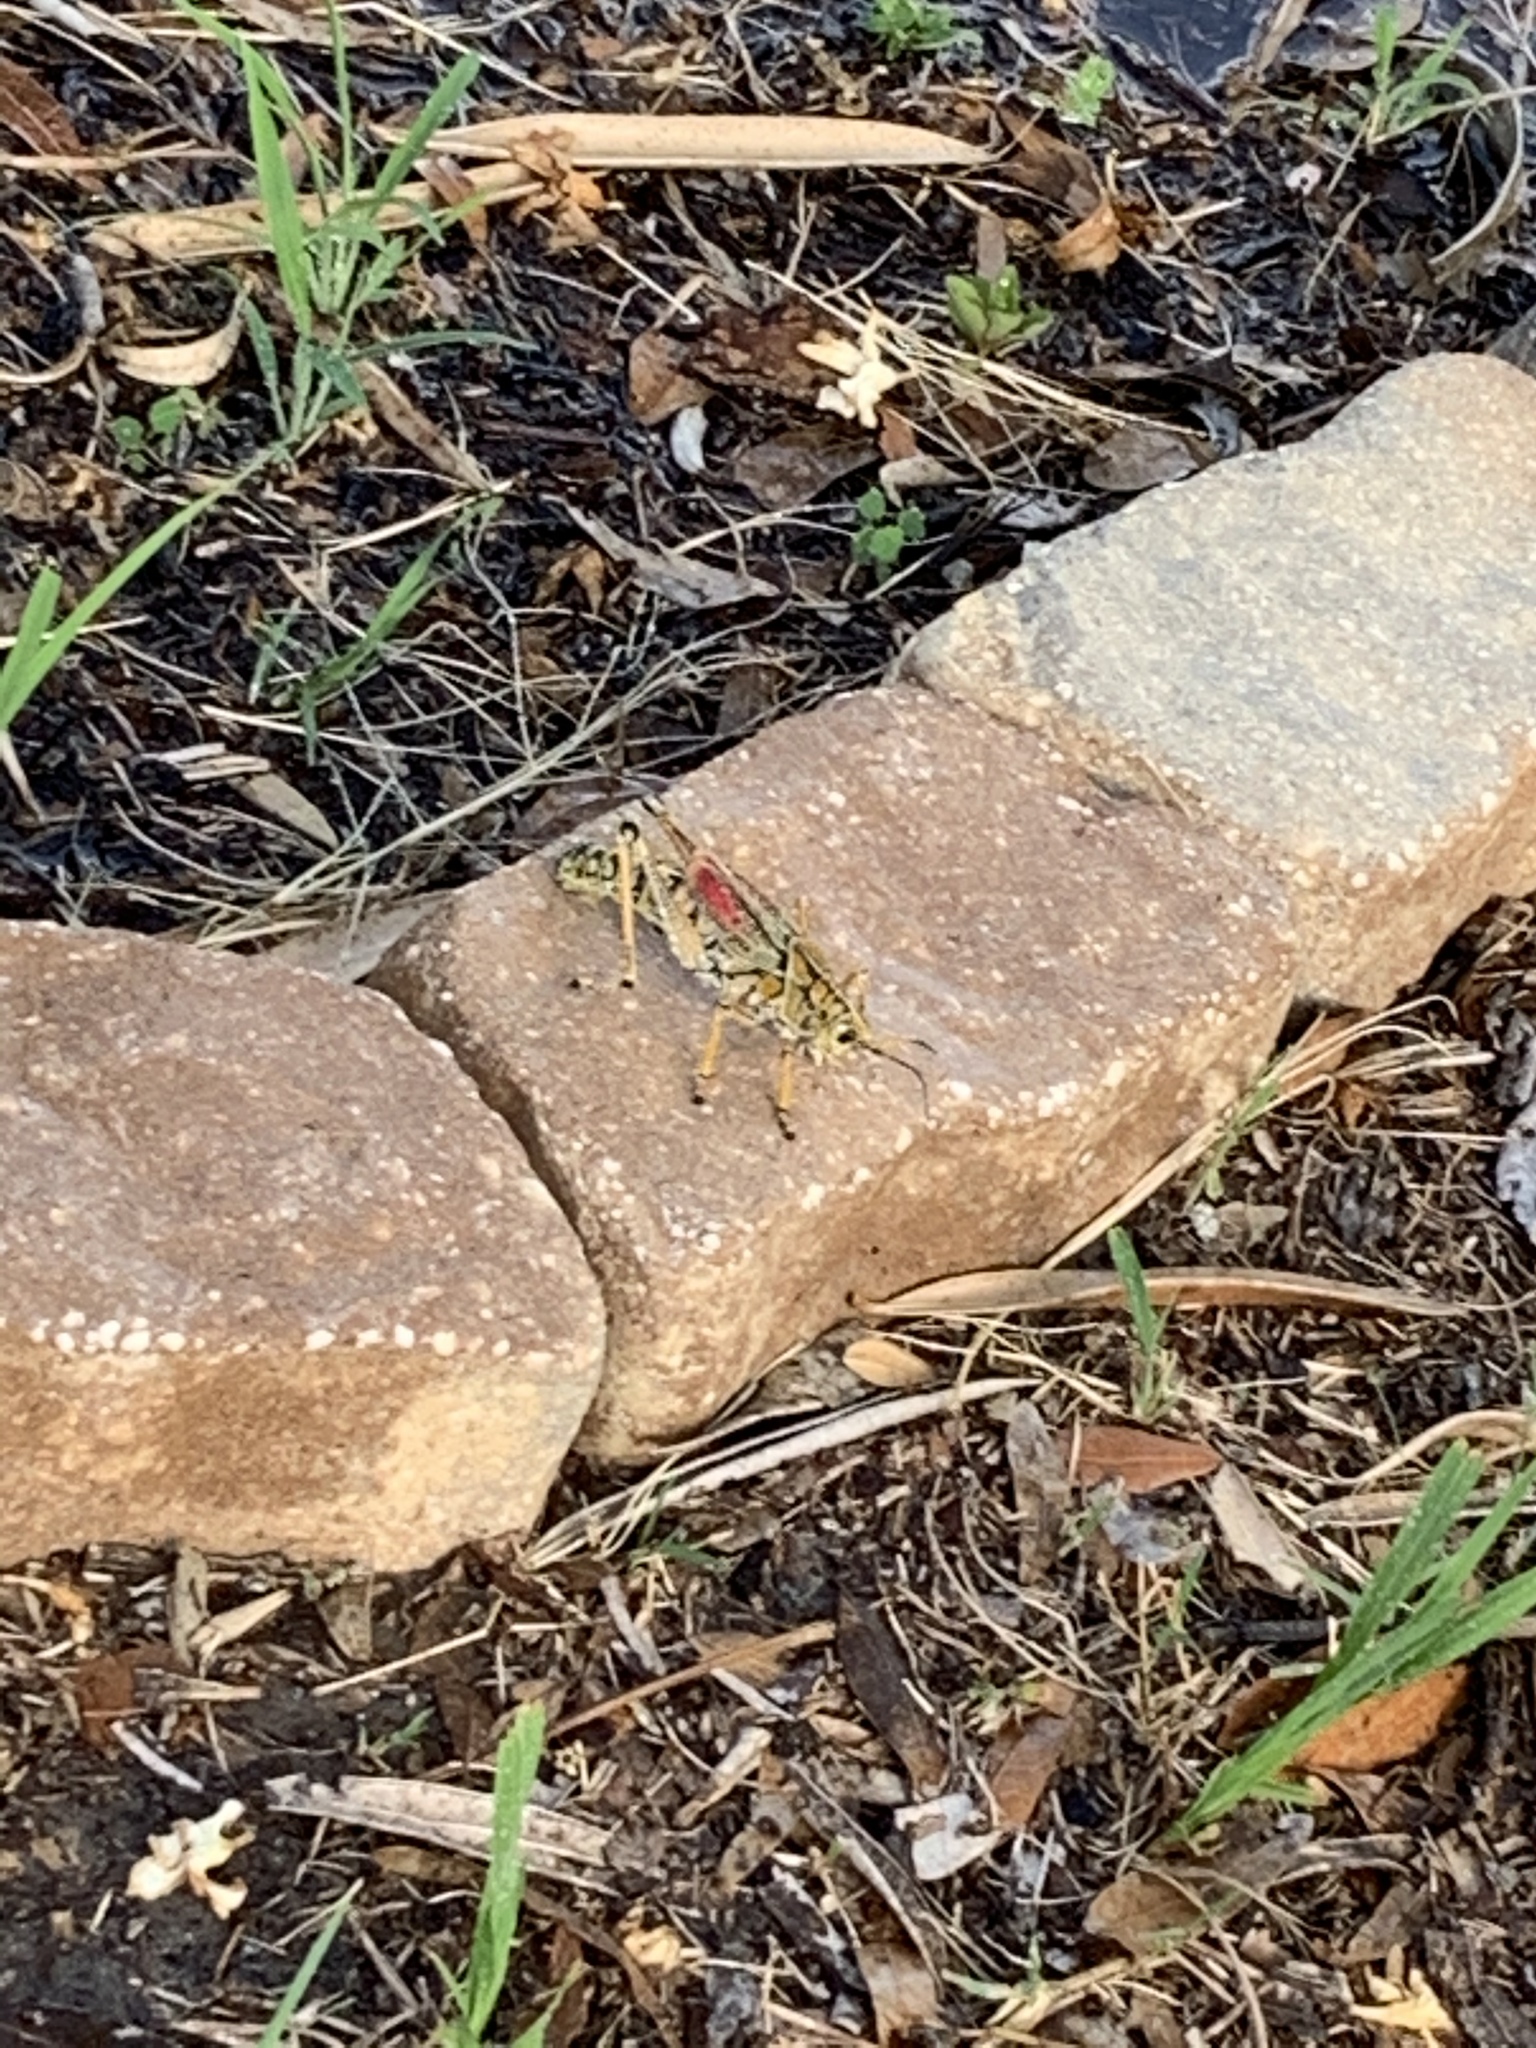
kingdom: Animalia
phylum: Arthropoda
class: Insecta
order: Orthoptera
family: Romaleidae
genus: Romalea
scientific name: Romalea microptera
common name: Eastern lubber grasshopper
